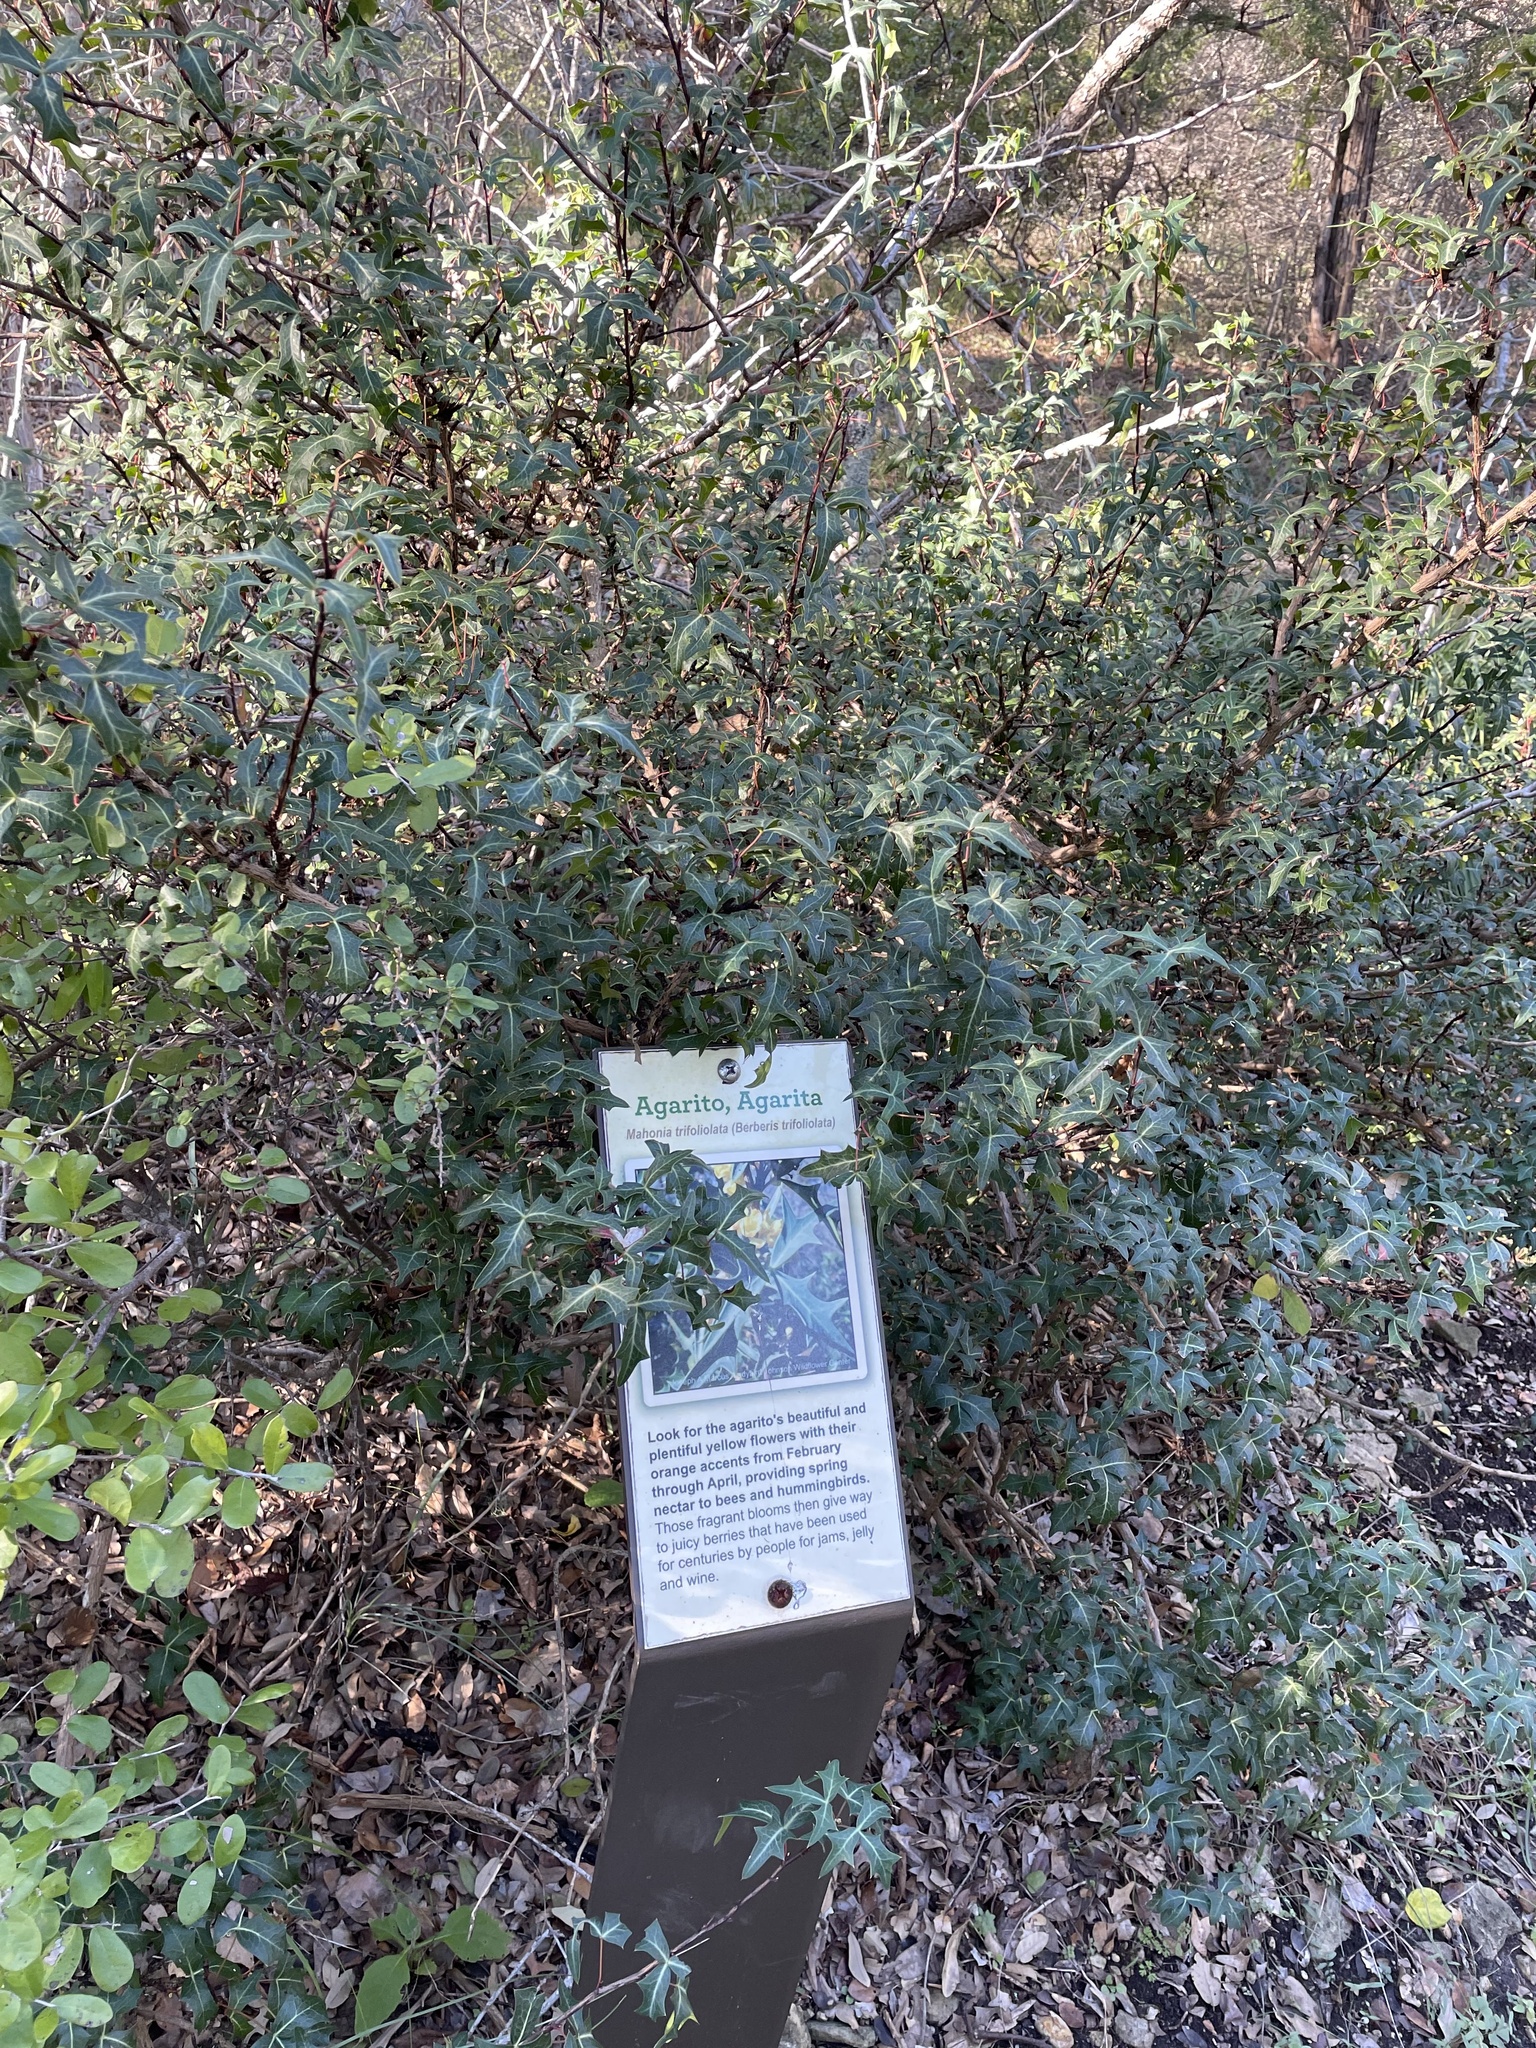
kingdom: Plantae
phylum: Tracheophyta
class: Magnoliopsida
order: Ranunculales
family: Berberidaceae
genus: Alloberberis
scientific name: Alloberberis trifoliolata
